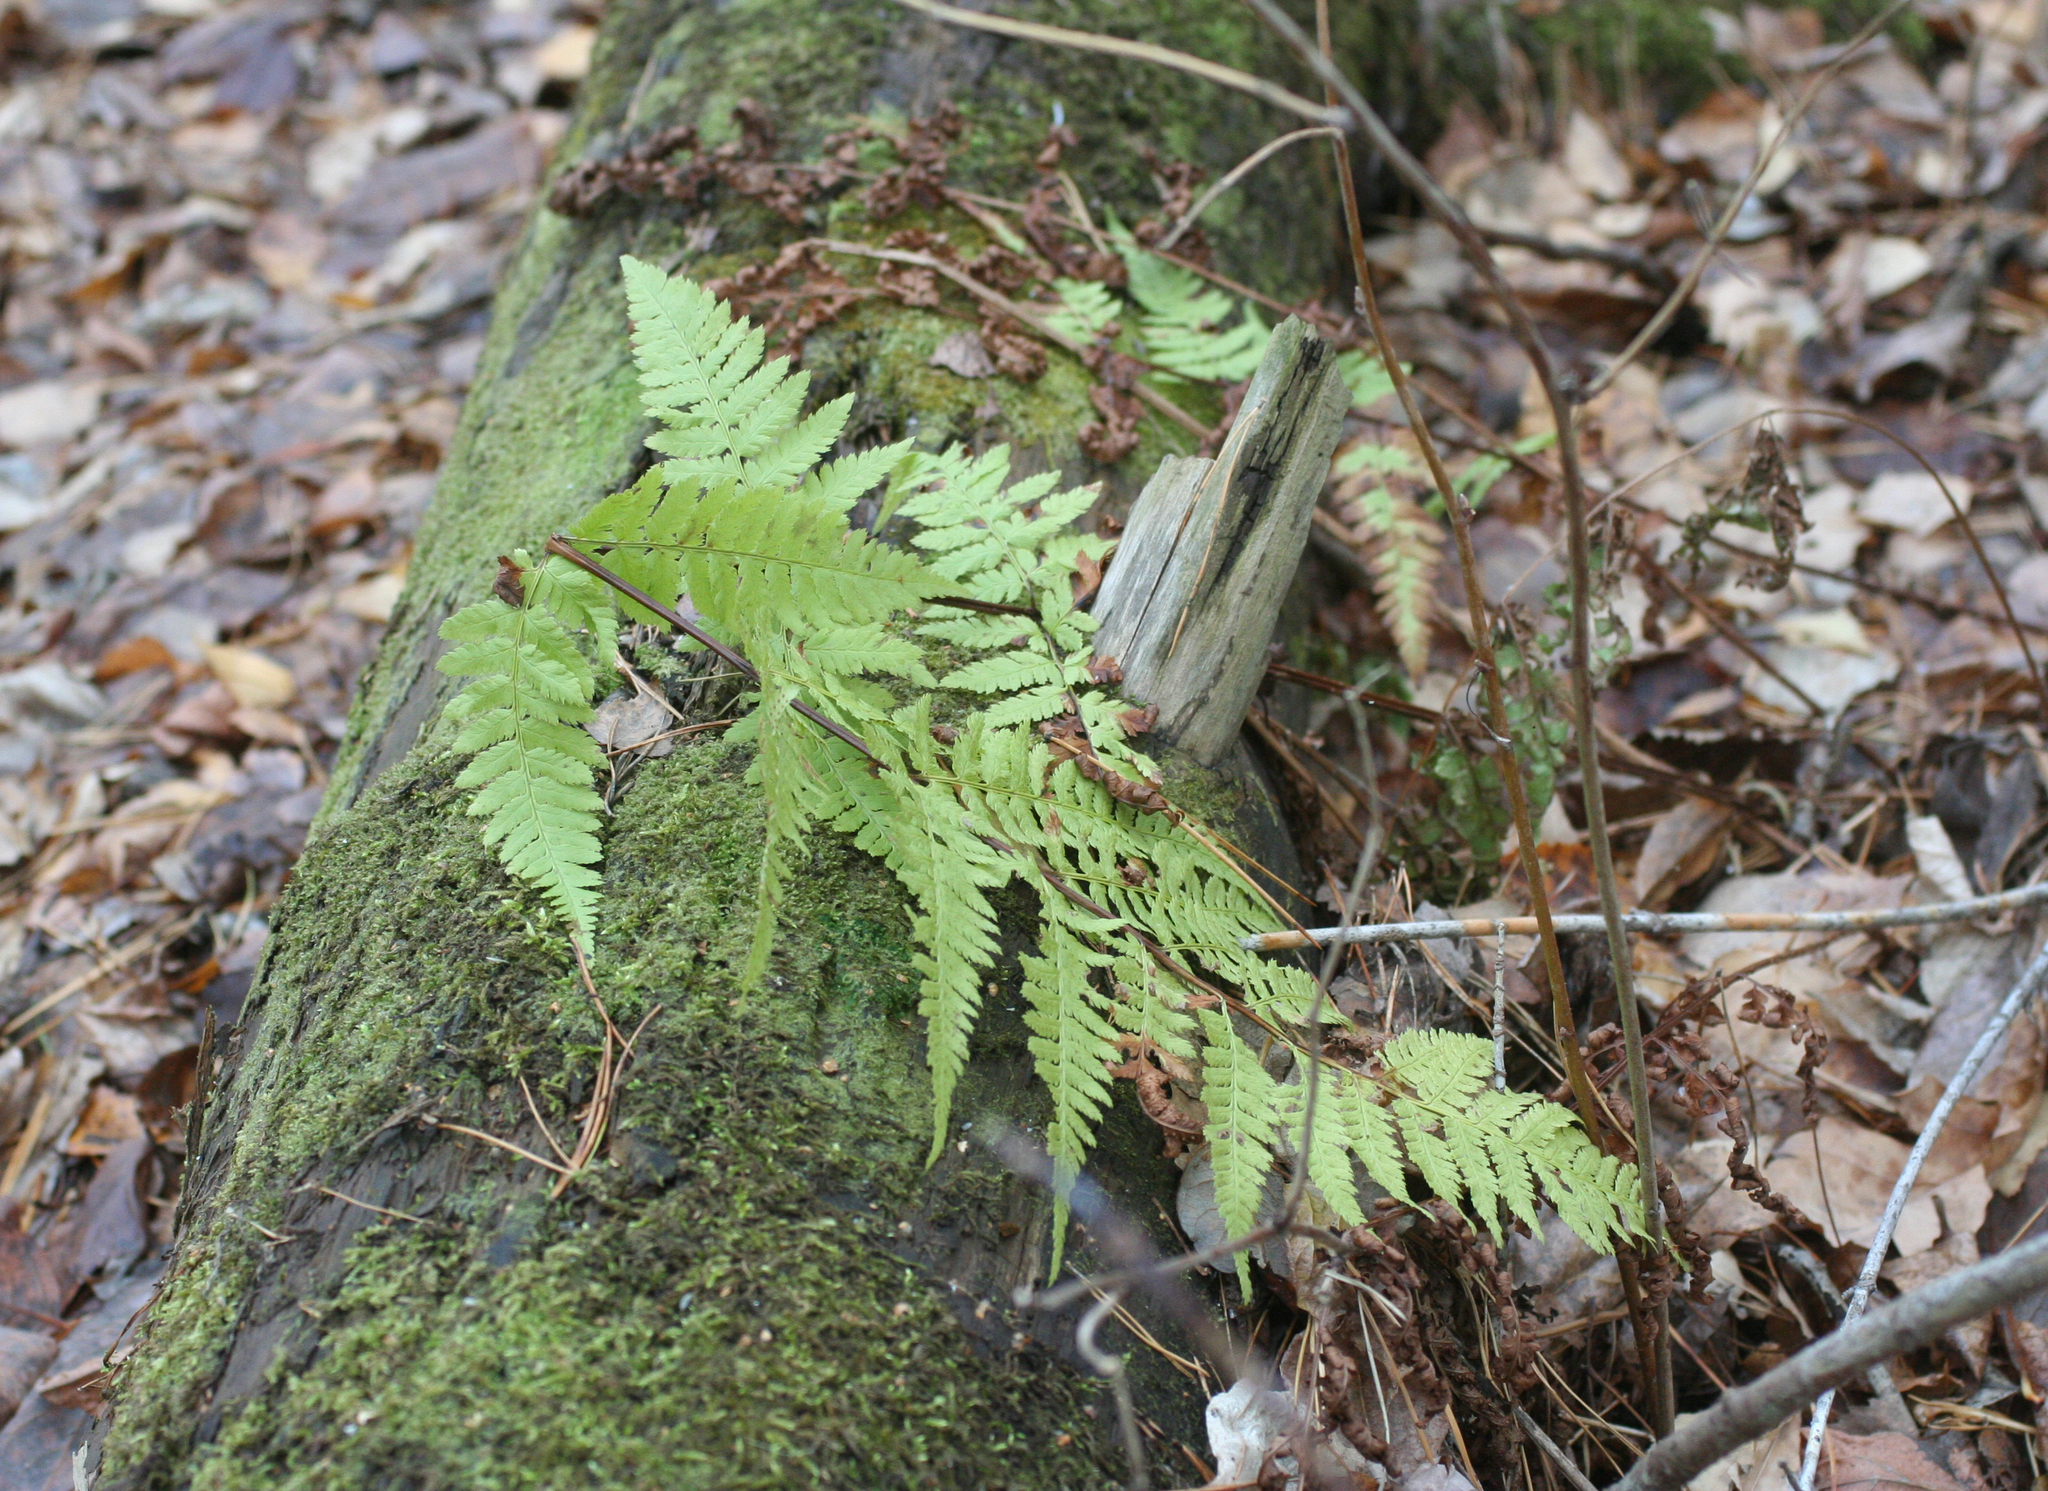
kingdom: Plantae
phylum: Tracheophyta
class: Polypodiopsida
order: Polypodiales
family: Dryopteridaceae
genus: Dryopteris
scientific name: Dryopteris carthusiana
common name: Narrow buckler-fern
